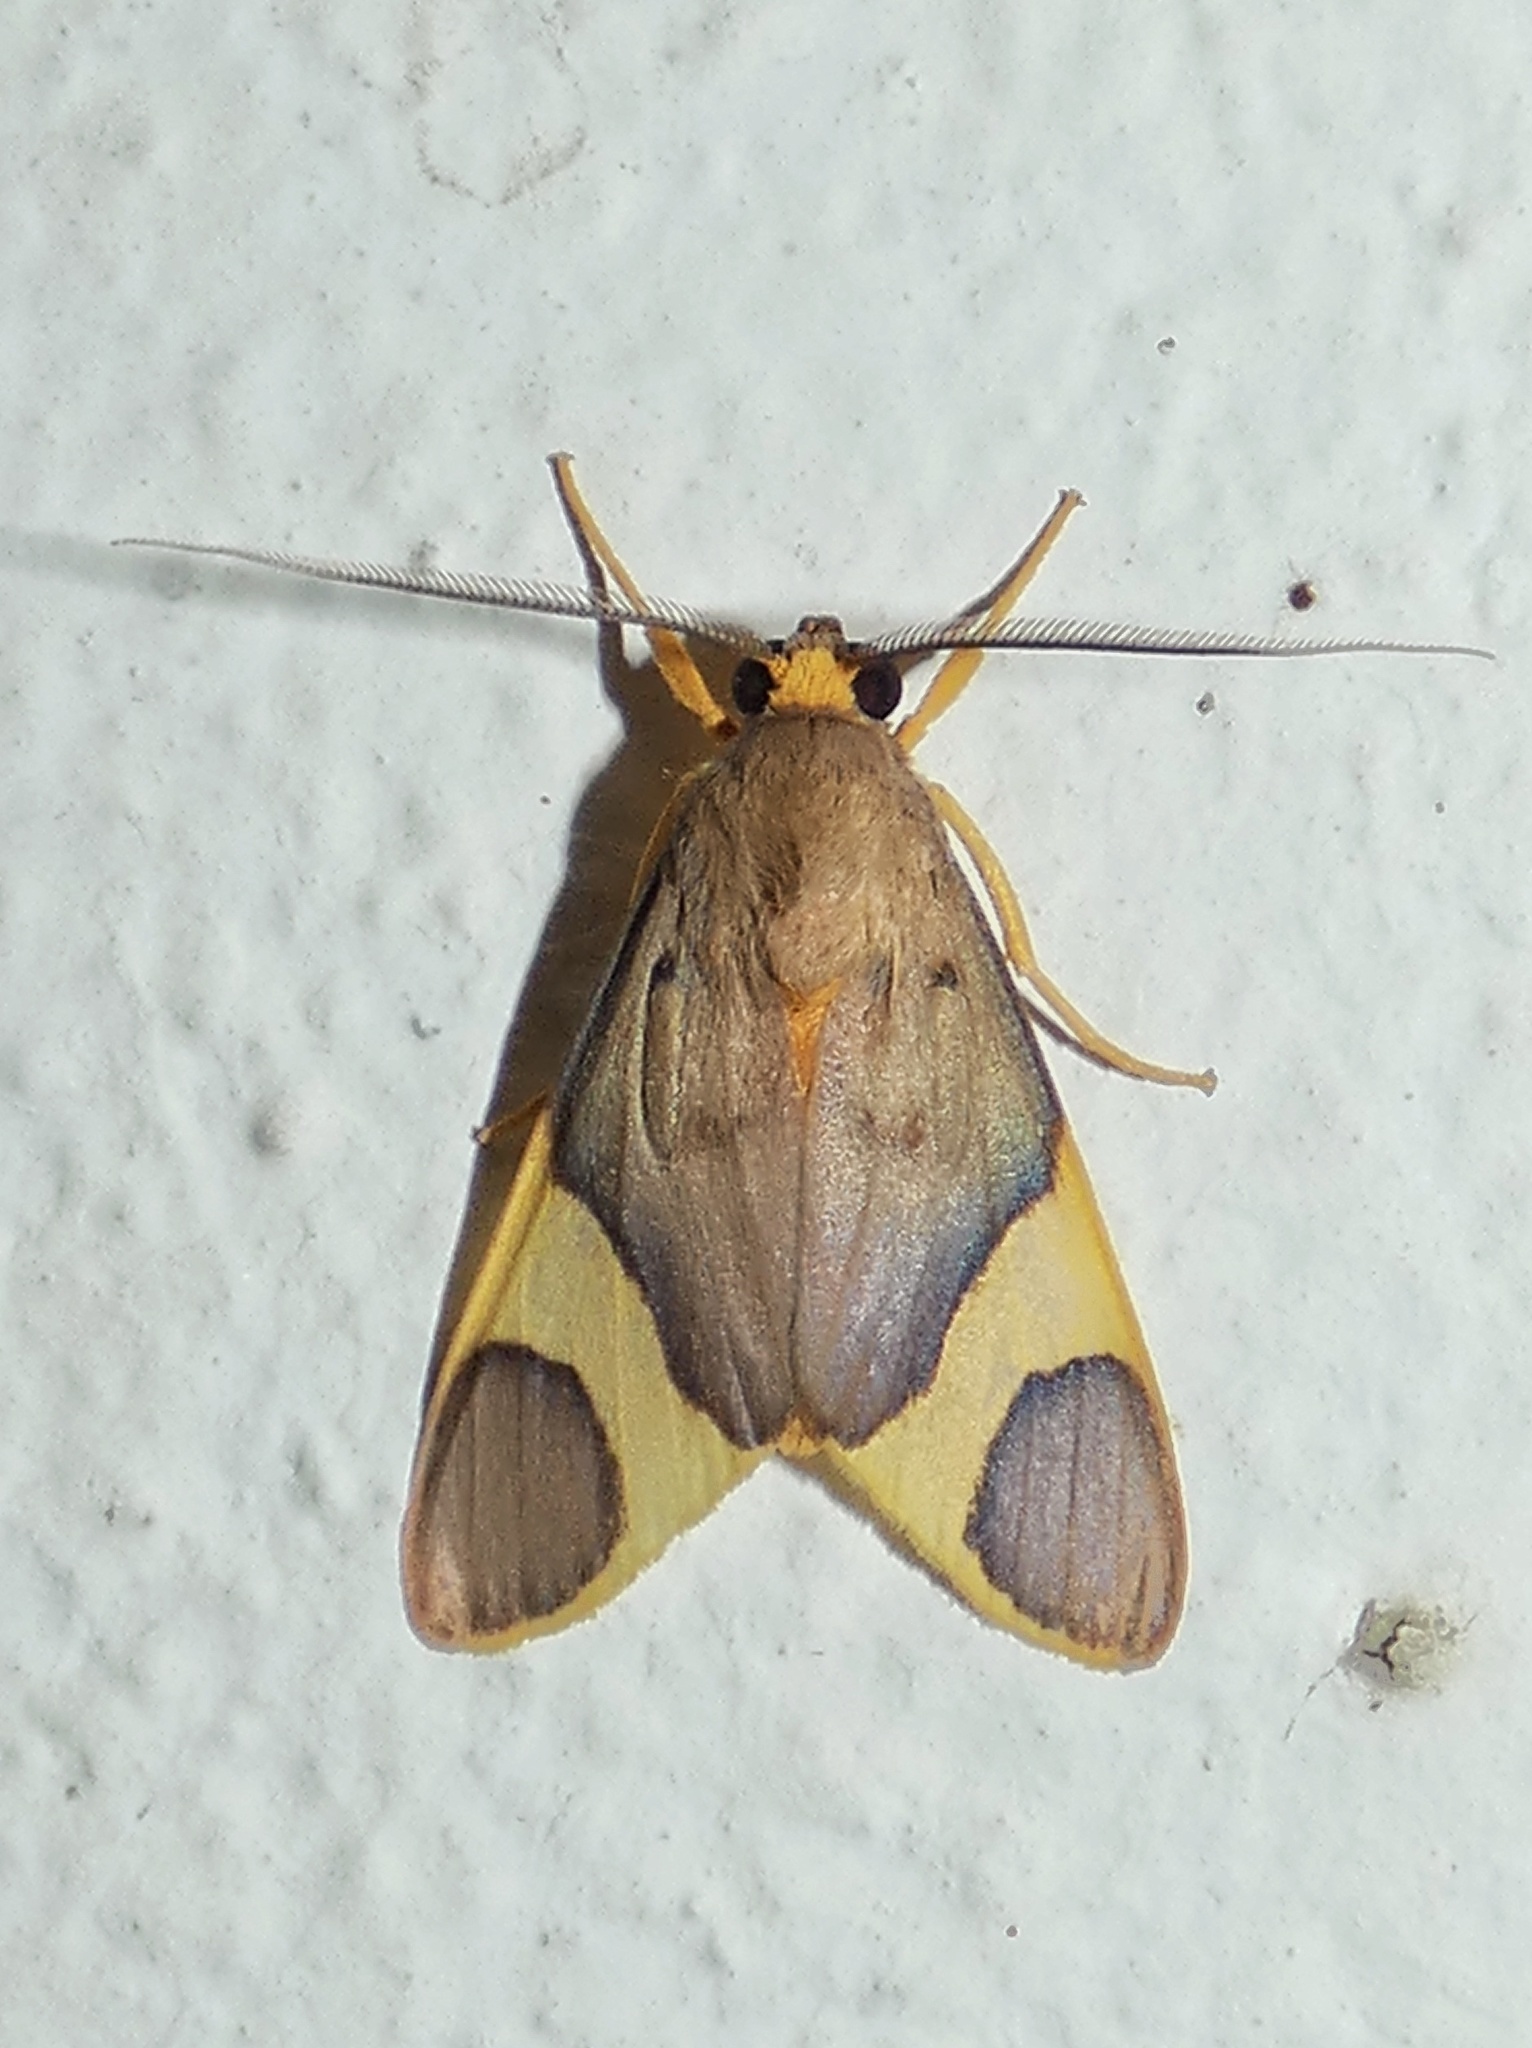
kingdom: Animalia
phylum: Arthropoda
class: Insecta
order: Lepidoptera
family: Erebidae
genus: Trichromia
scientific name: Trichromia cotes
